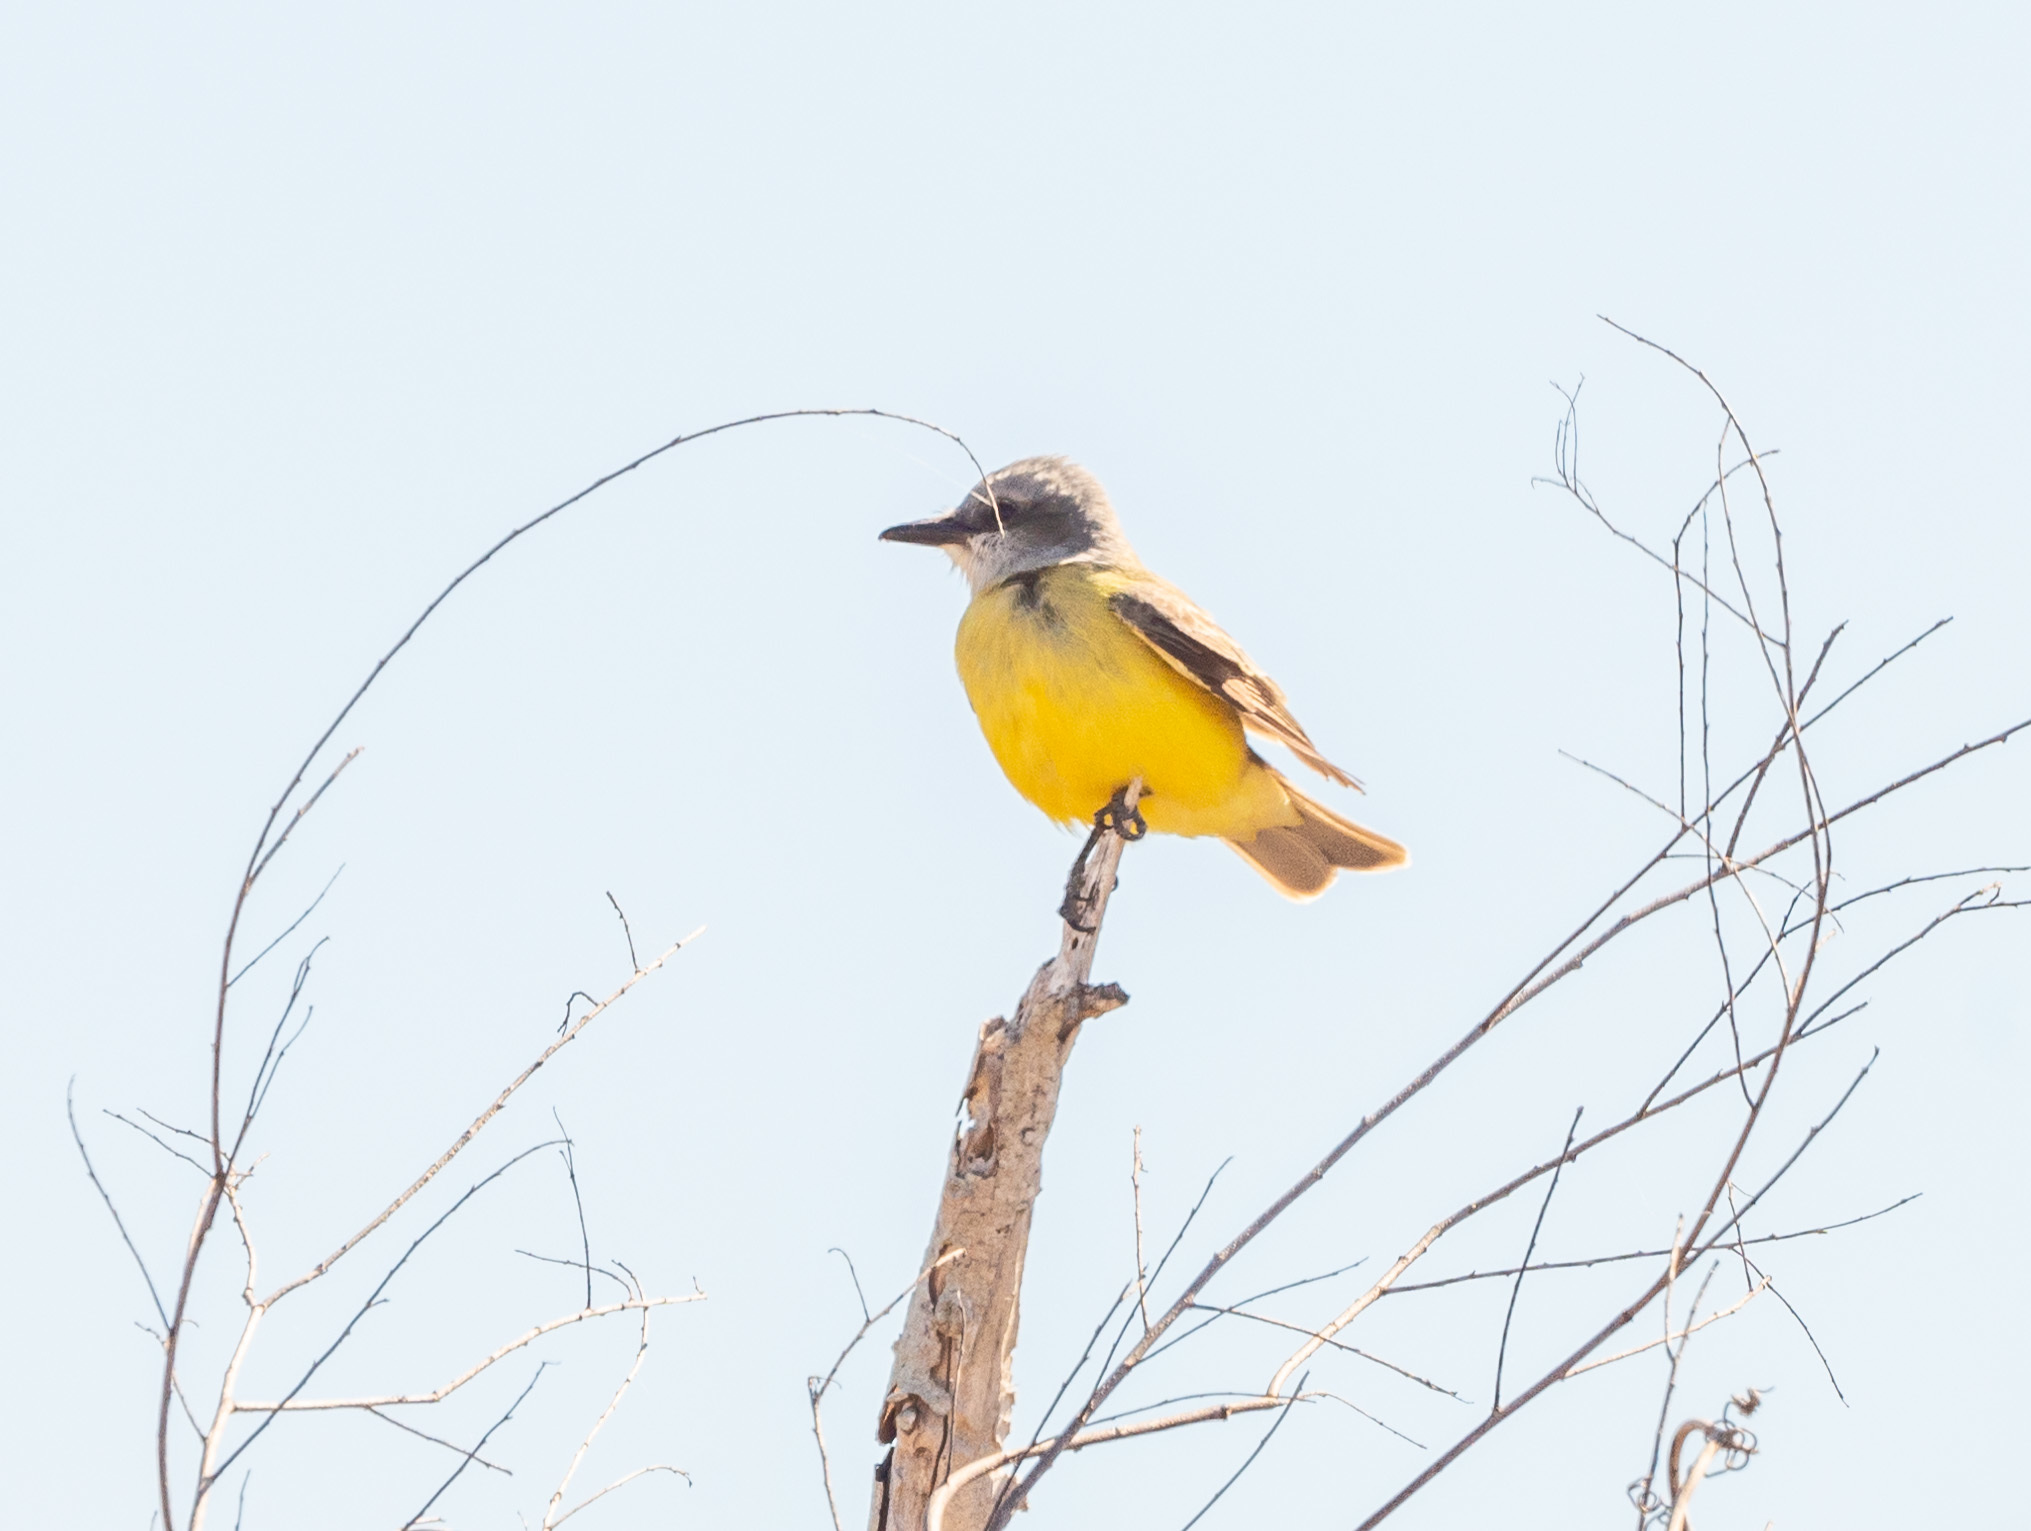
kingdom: Animalia
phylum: Chordata
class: Aves
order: Passeriformes
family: Tyrannidae
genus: Tyrannus
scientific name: Tyrannus
